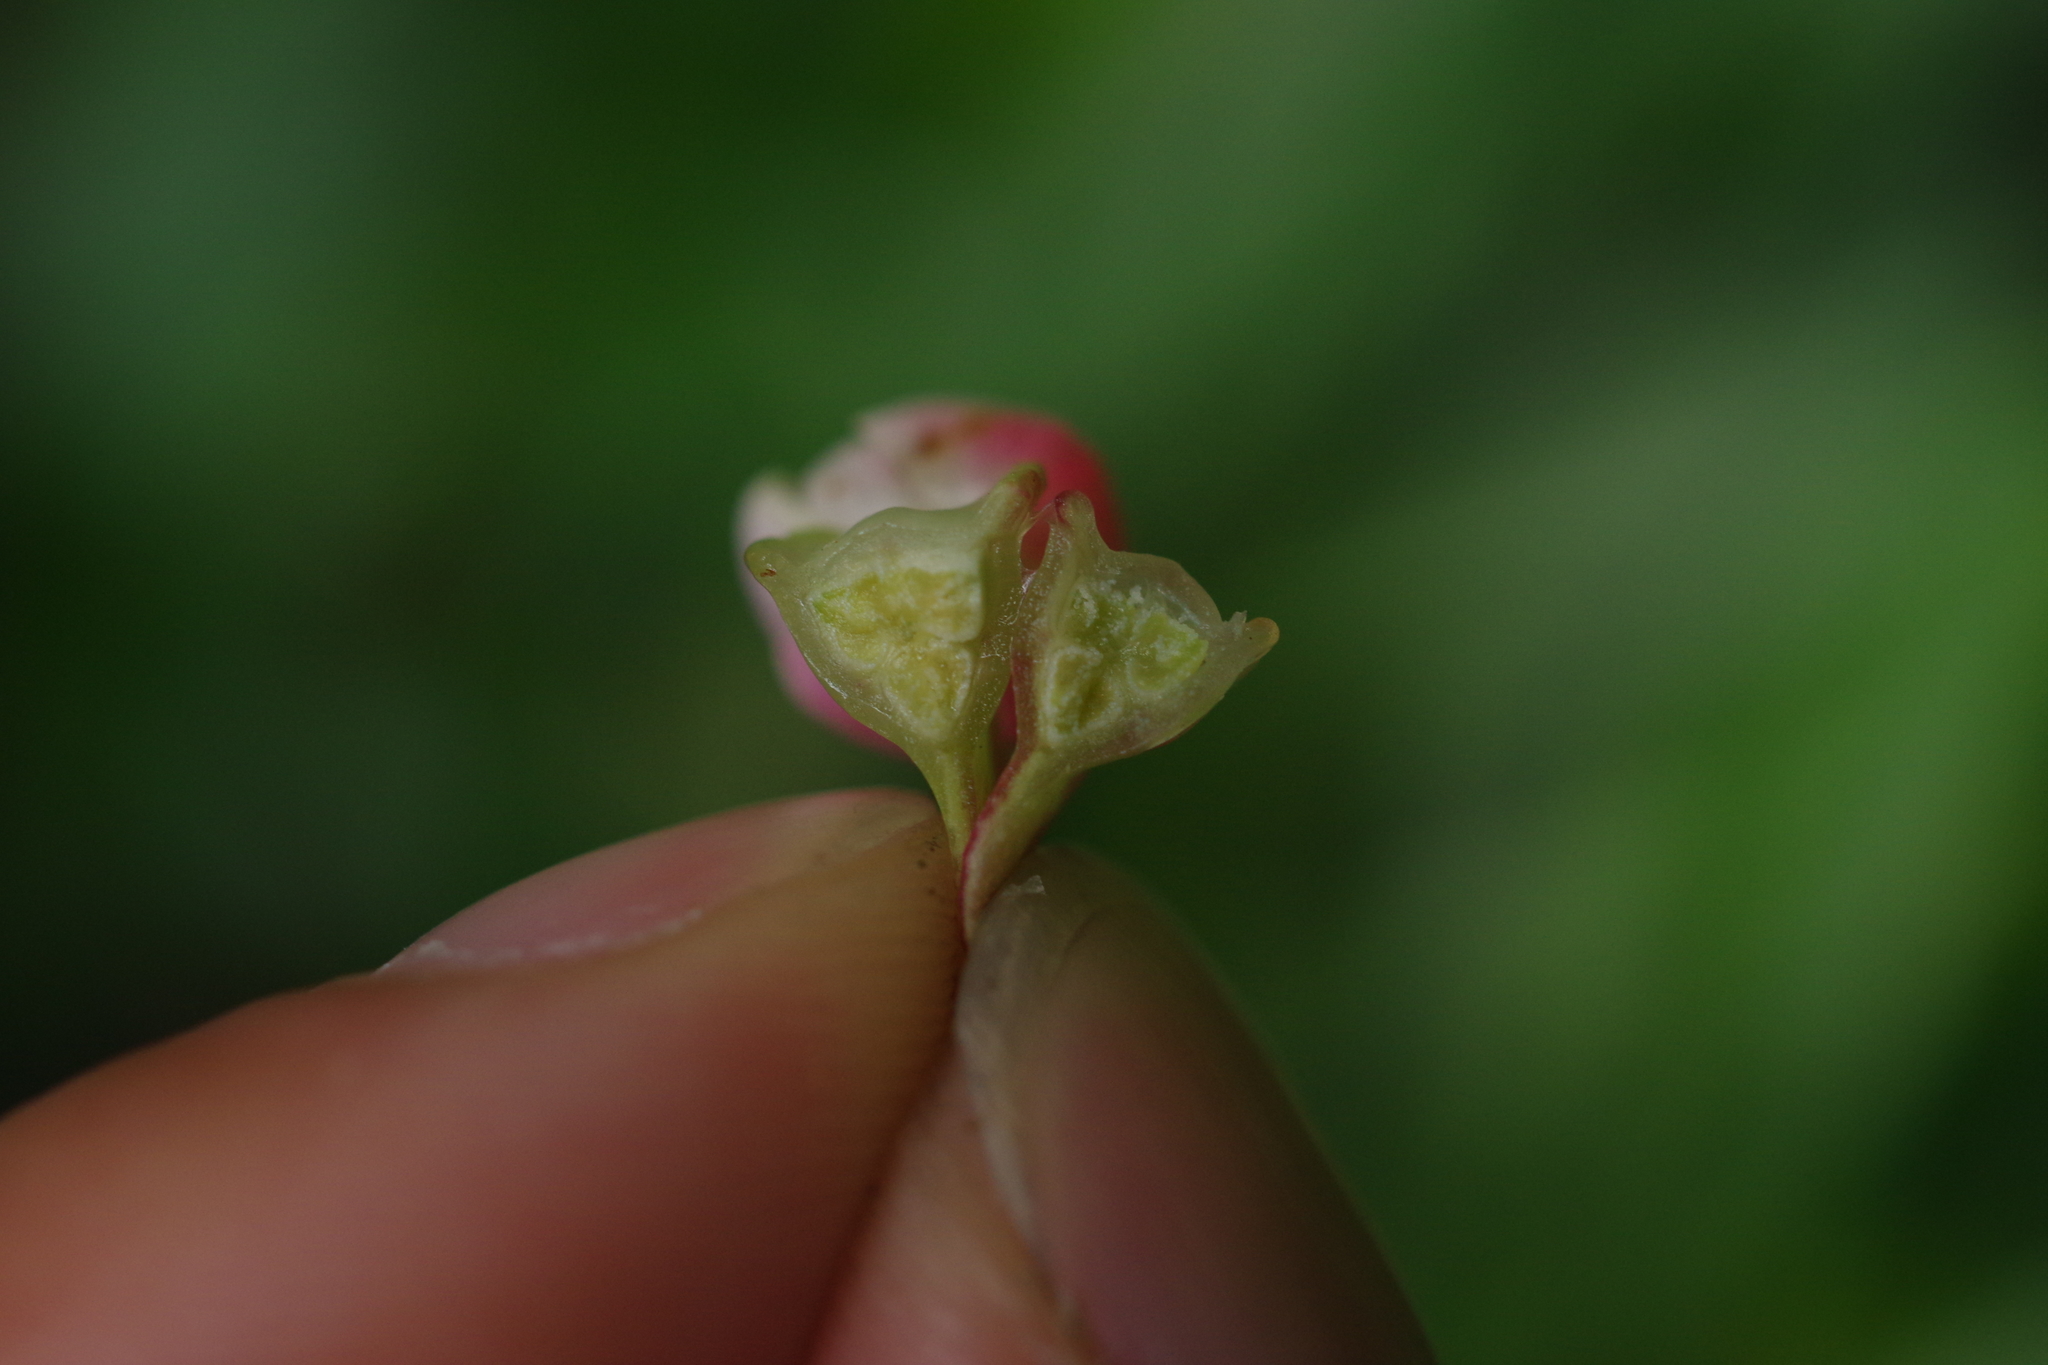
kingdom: Plantae
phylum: Tracheophyta
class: Magnoliopsida
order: Cucurbitales
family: Begoniaceae
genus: Begonia
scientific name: Begonia taiwaniana
